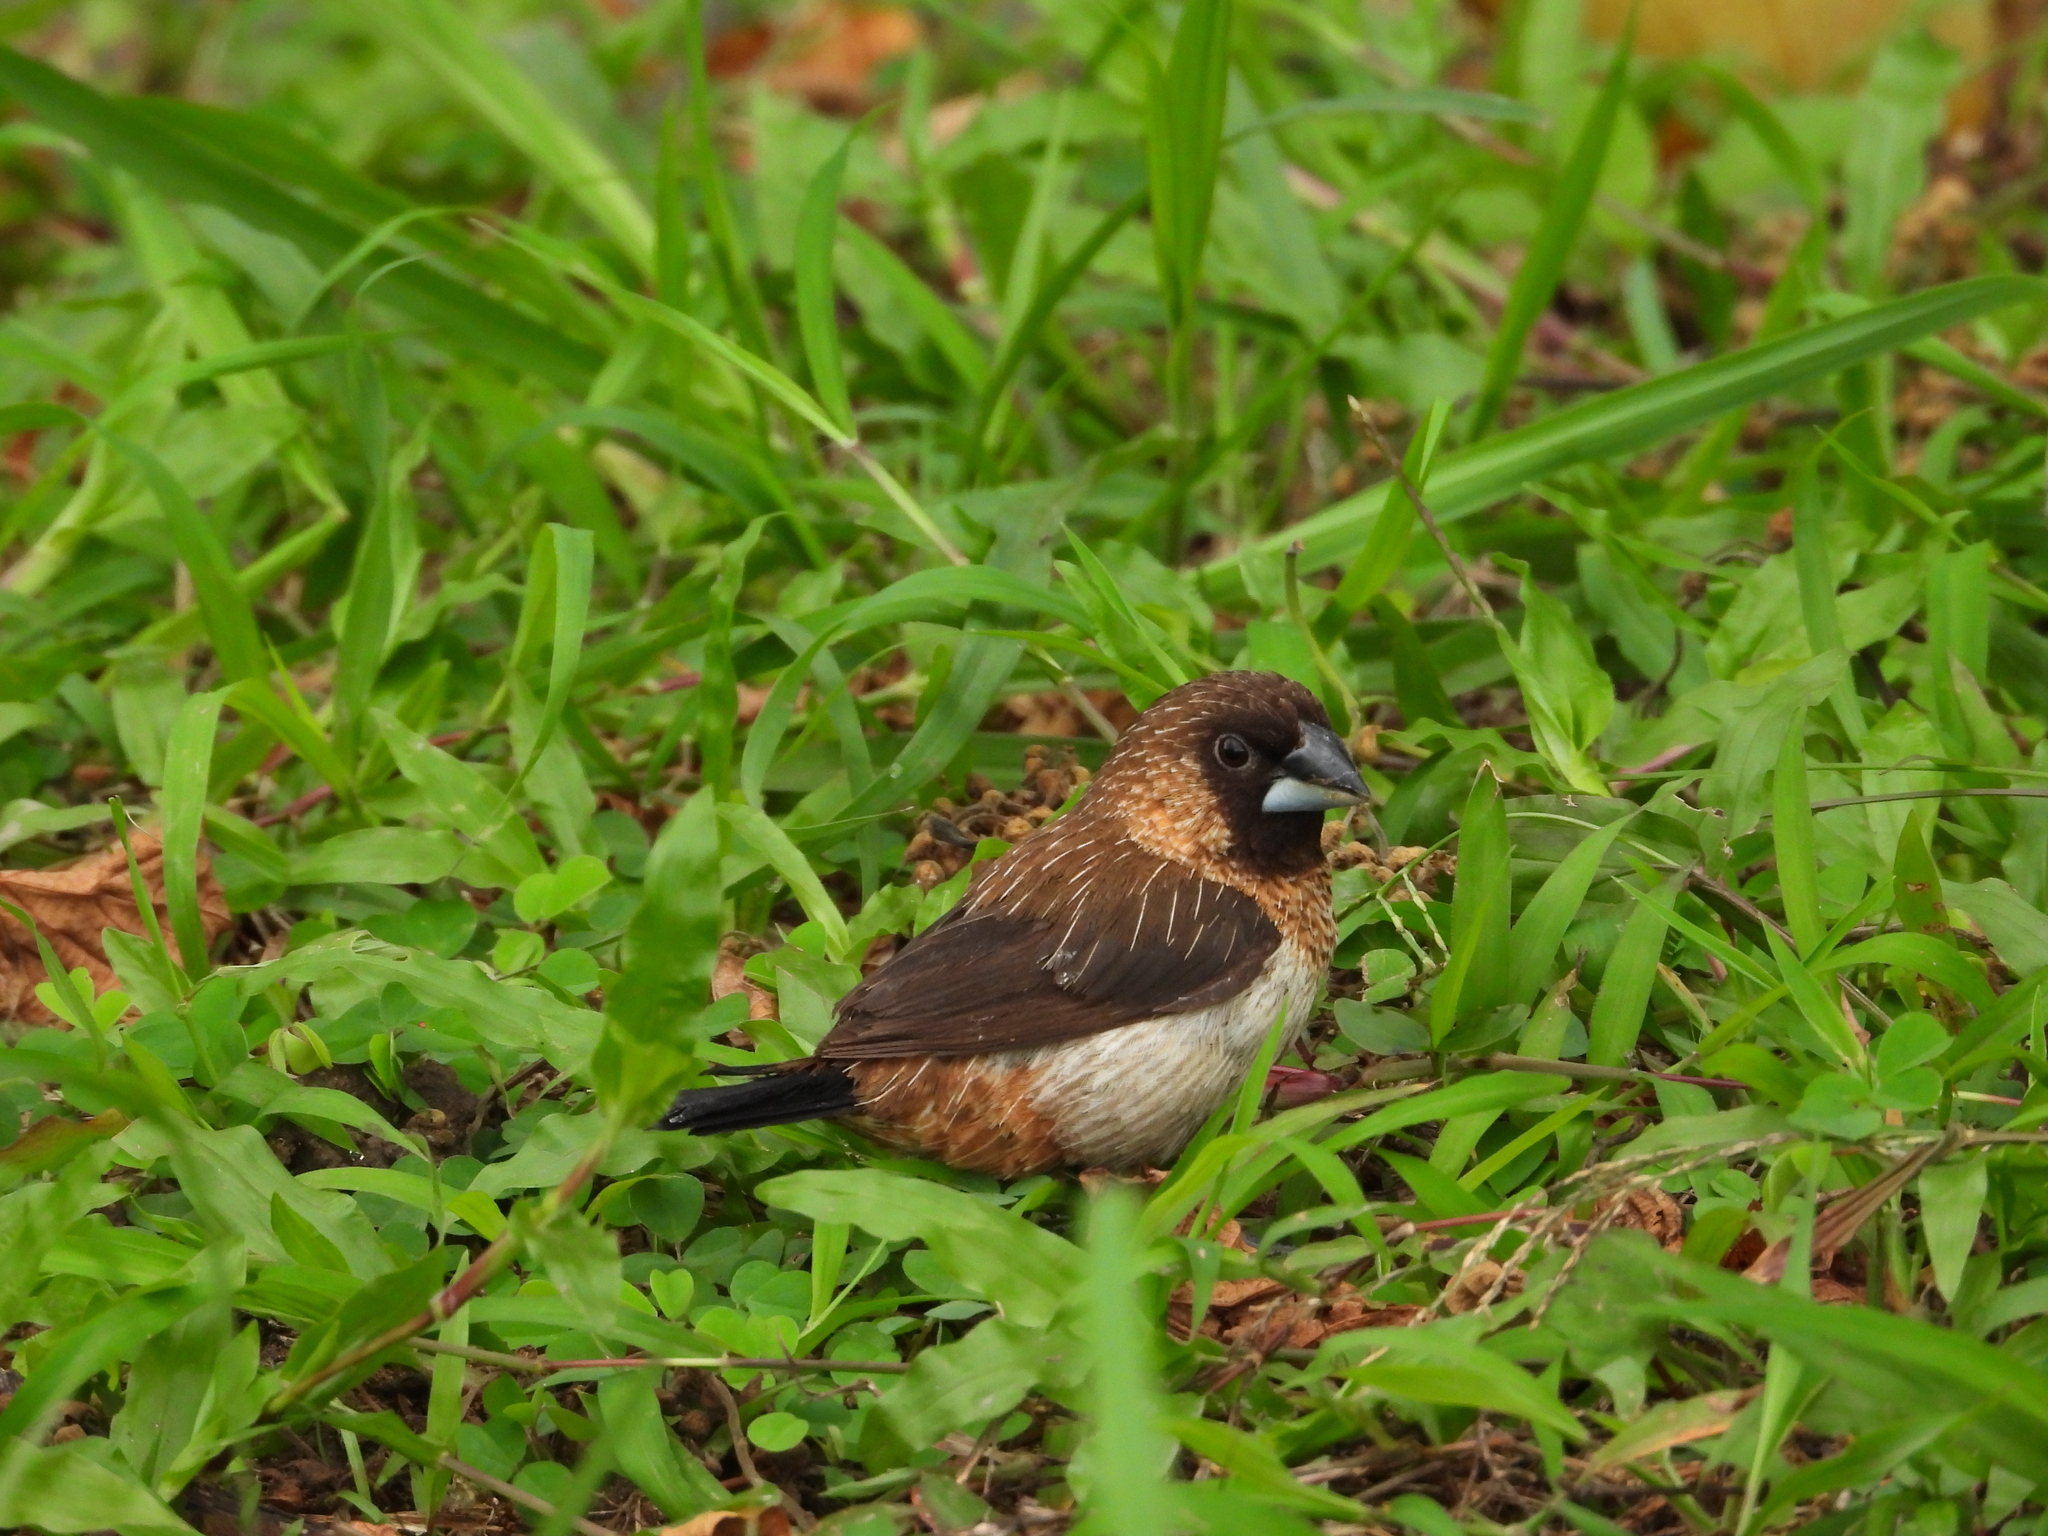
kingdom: Animalia
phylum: Chordata
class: Aves
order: Passeriformes
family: Estrildidae
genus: Lonchura
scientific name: Lonchura striata
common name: White-rumped munia
